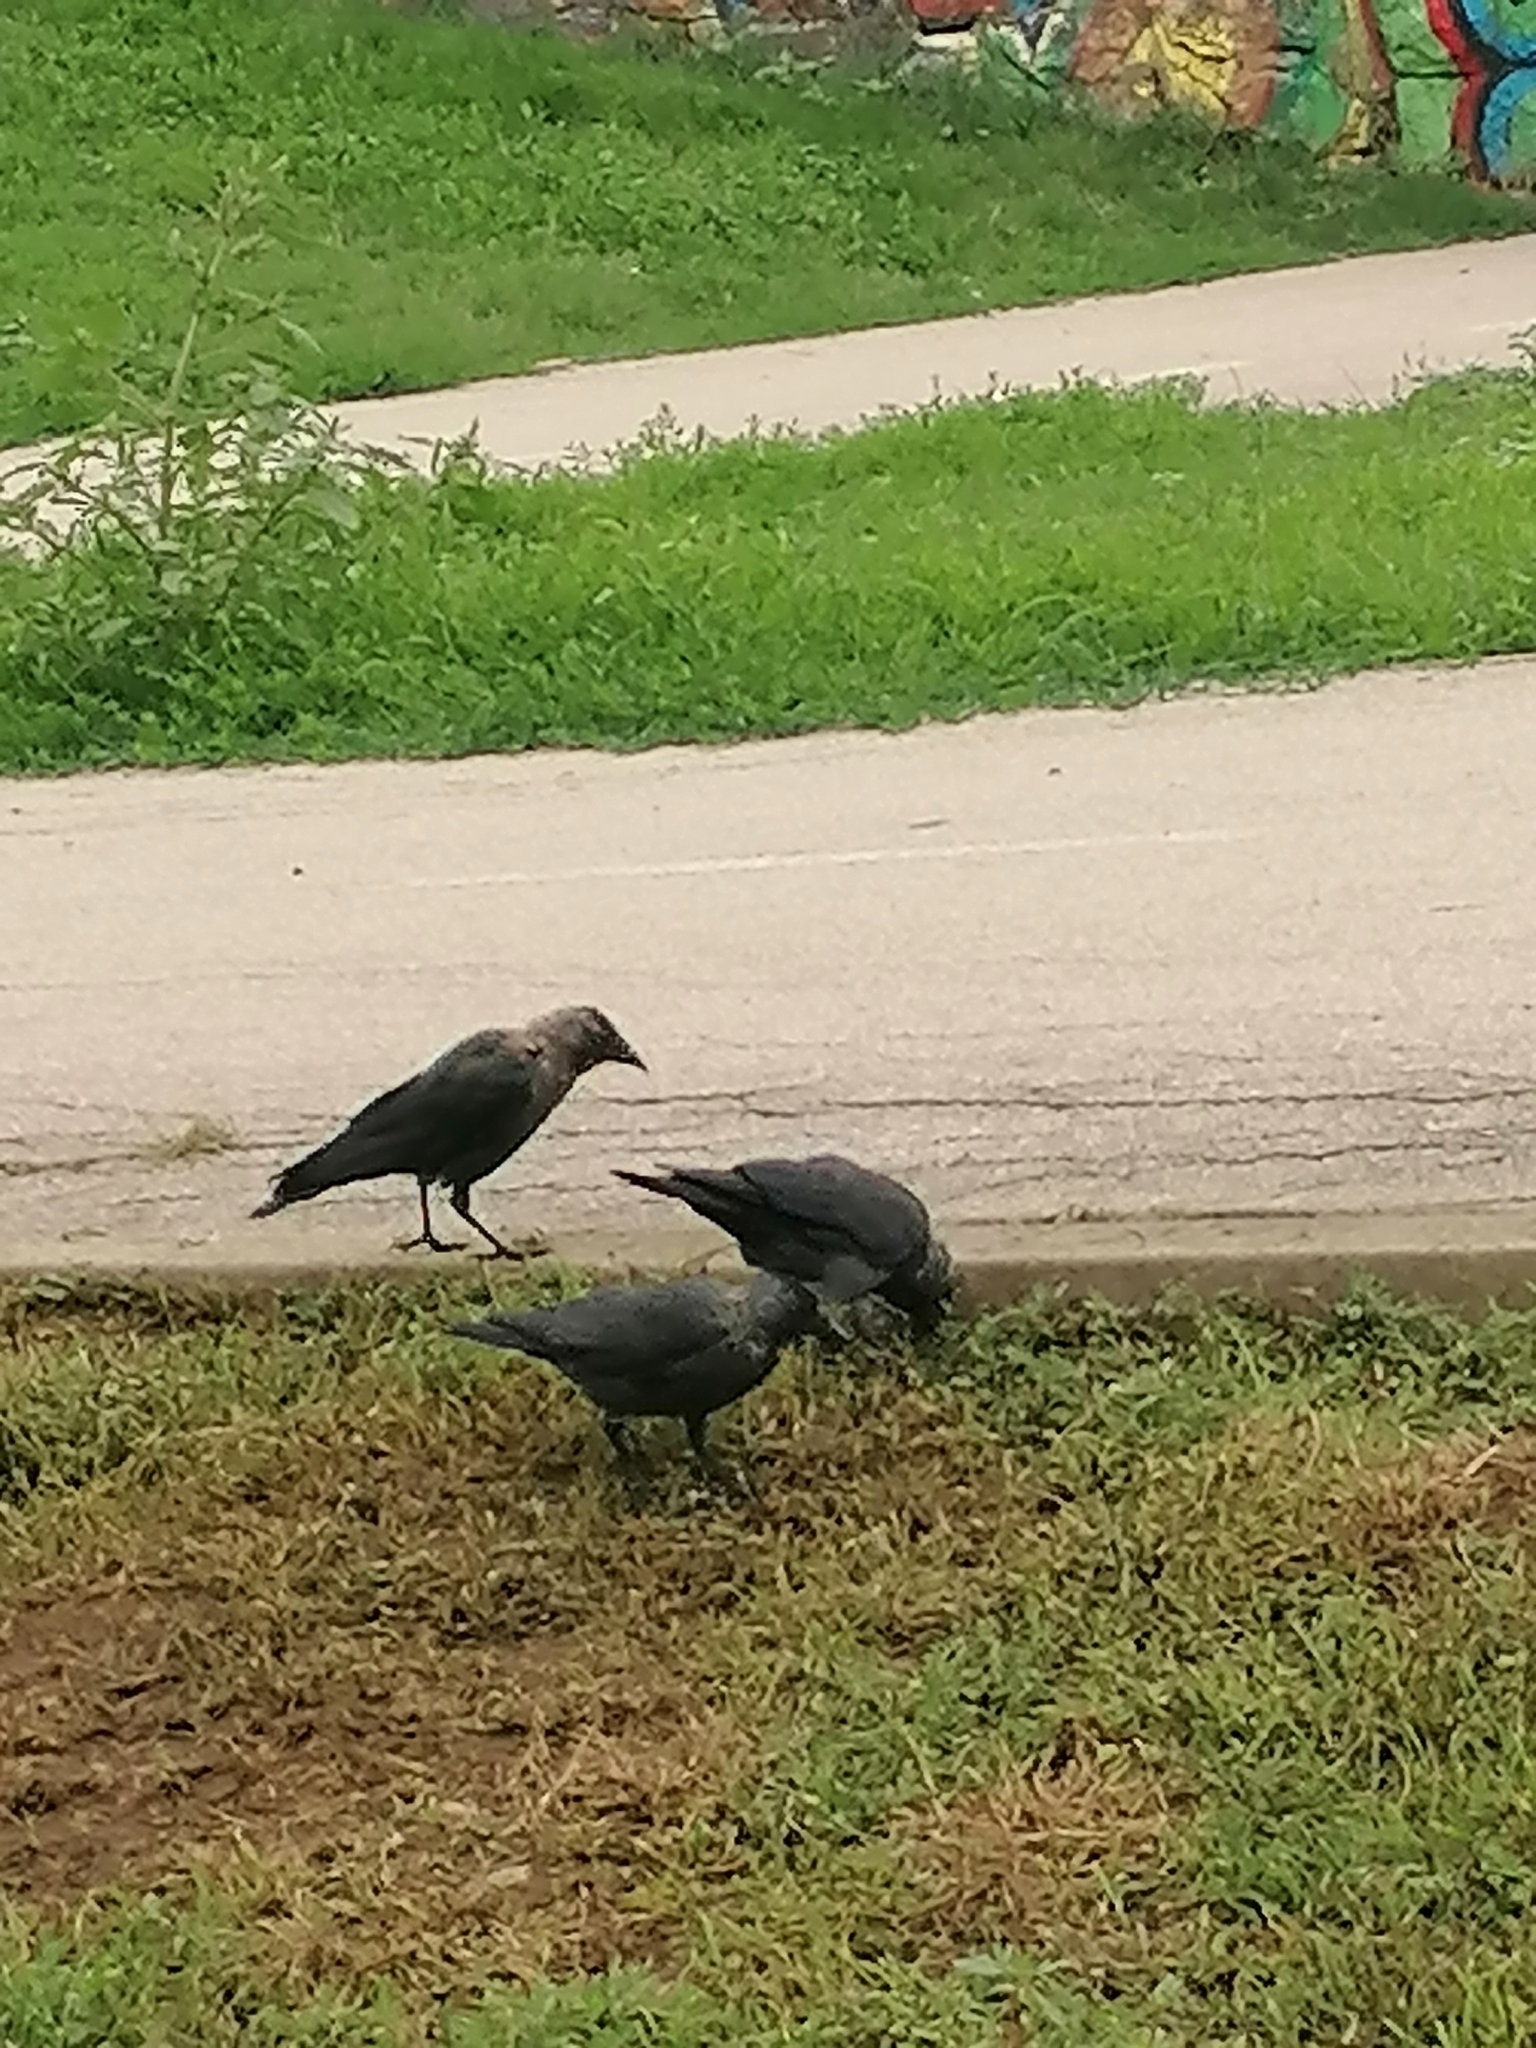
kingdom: Animalia
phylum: Chordata
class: Aves
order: Passeriformes
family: Corvidae
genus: Coloeus
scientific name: Coloeus monedula
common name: Western jackdaw
